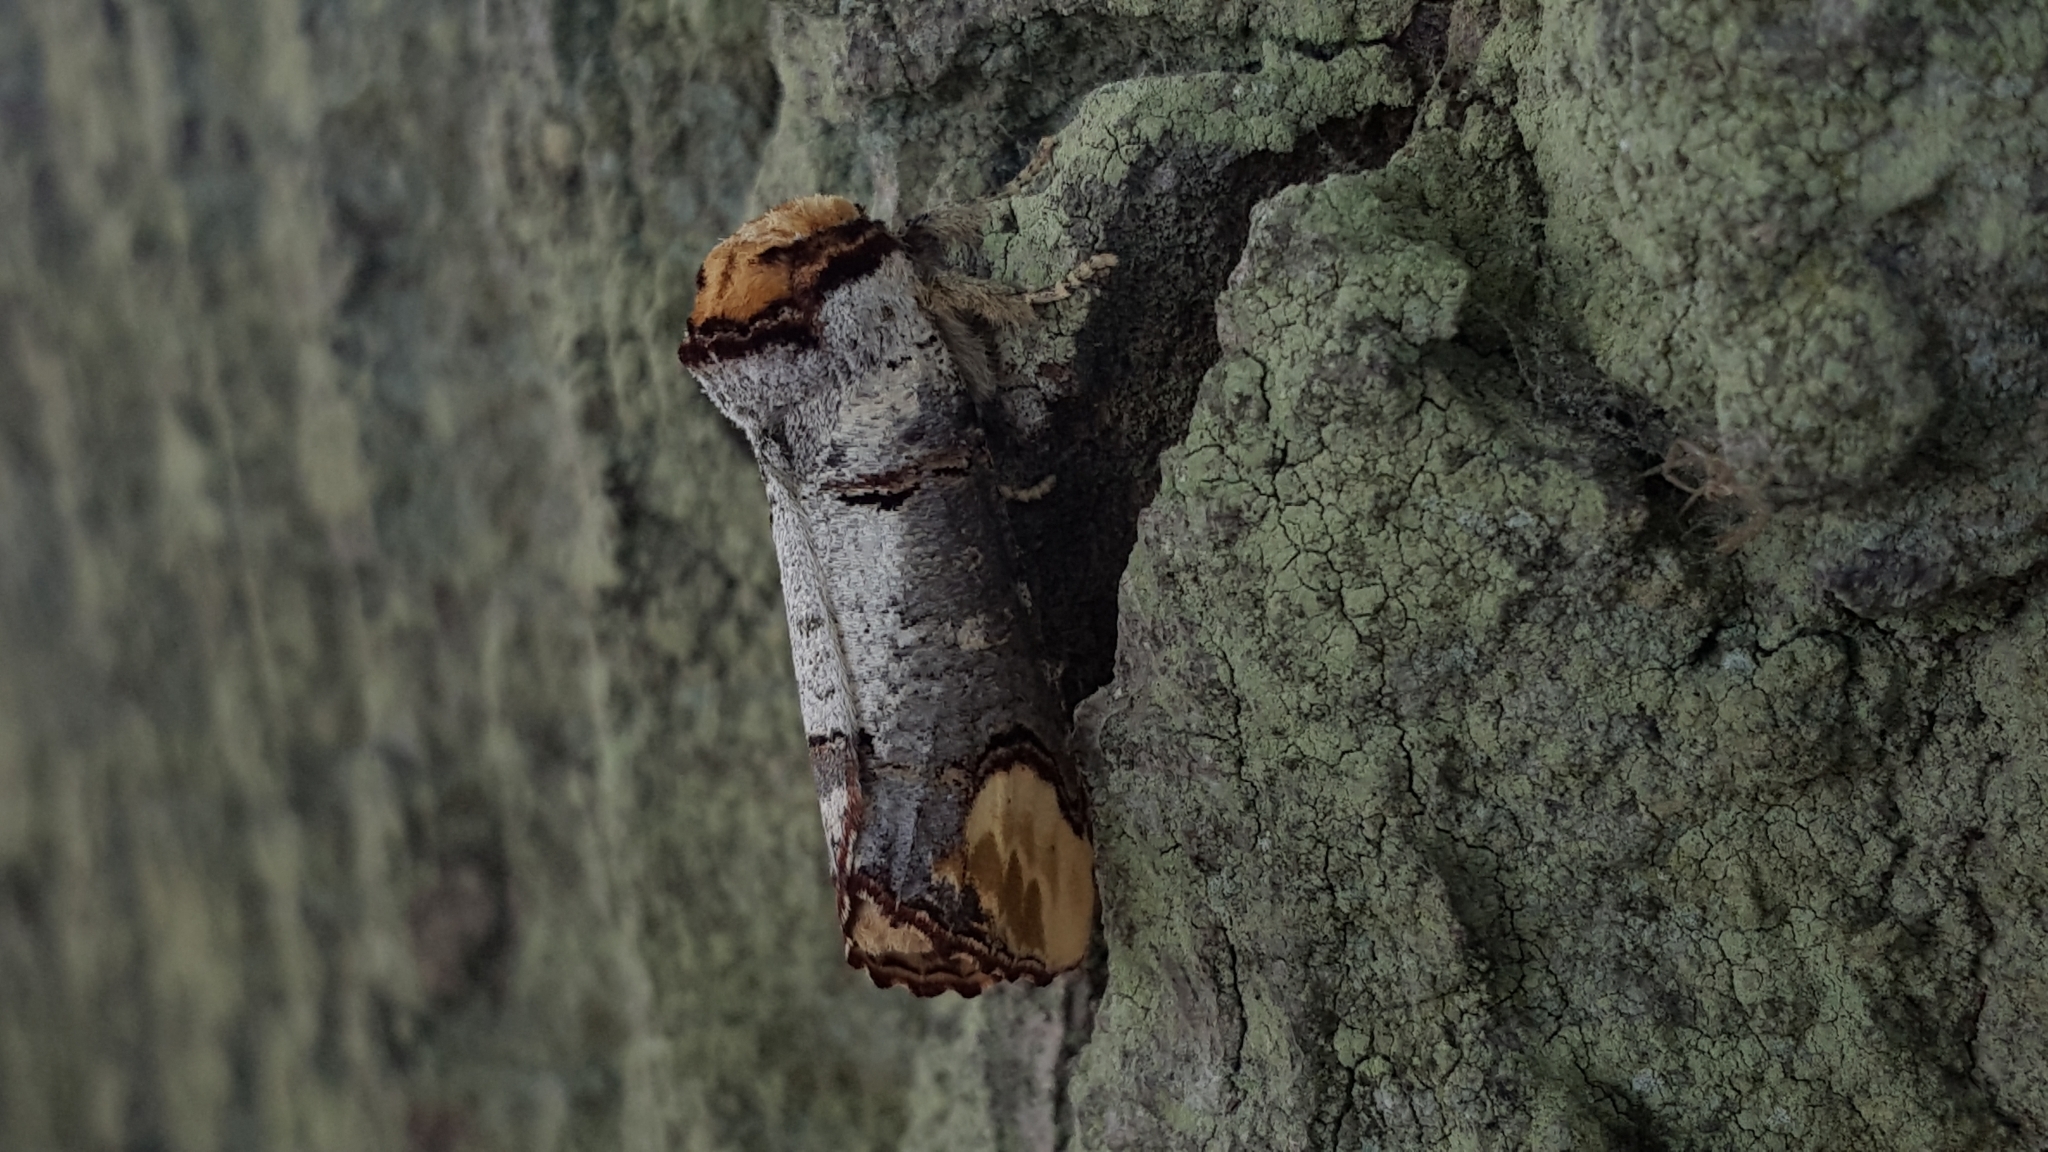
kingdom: Animalia
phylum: Arthropoda
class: Insecta
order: Lepidoptera
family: Notodontidae
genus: Phalera
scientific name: Phalera bucephala
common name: Buff-tip
